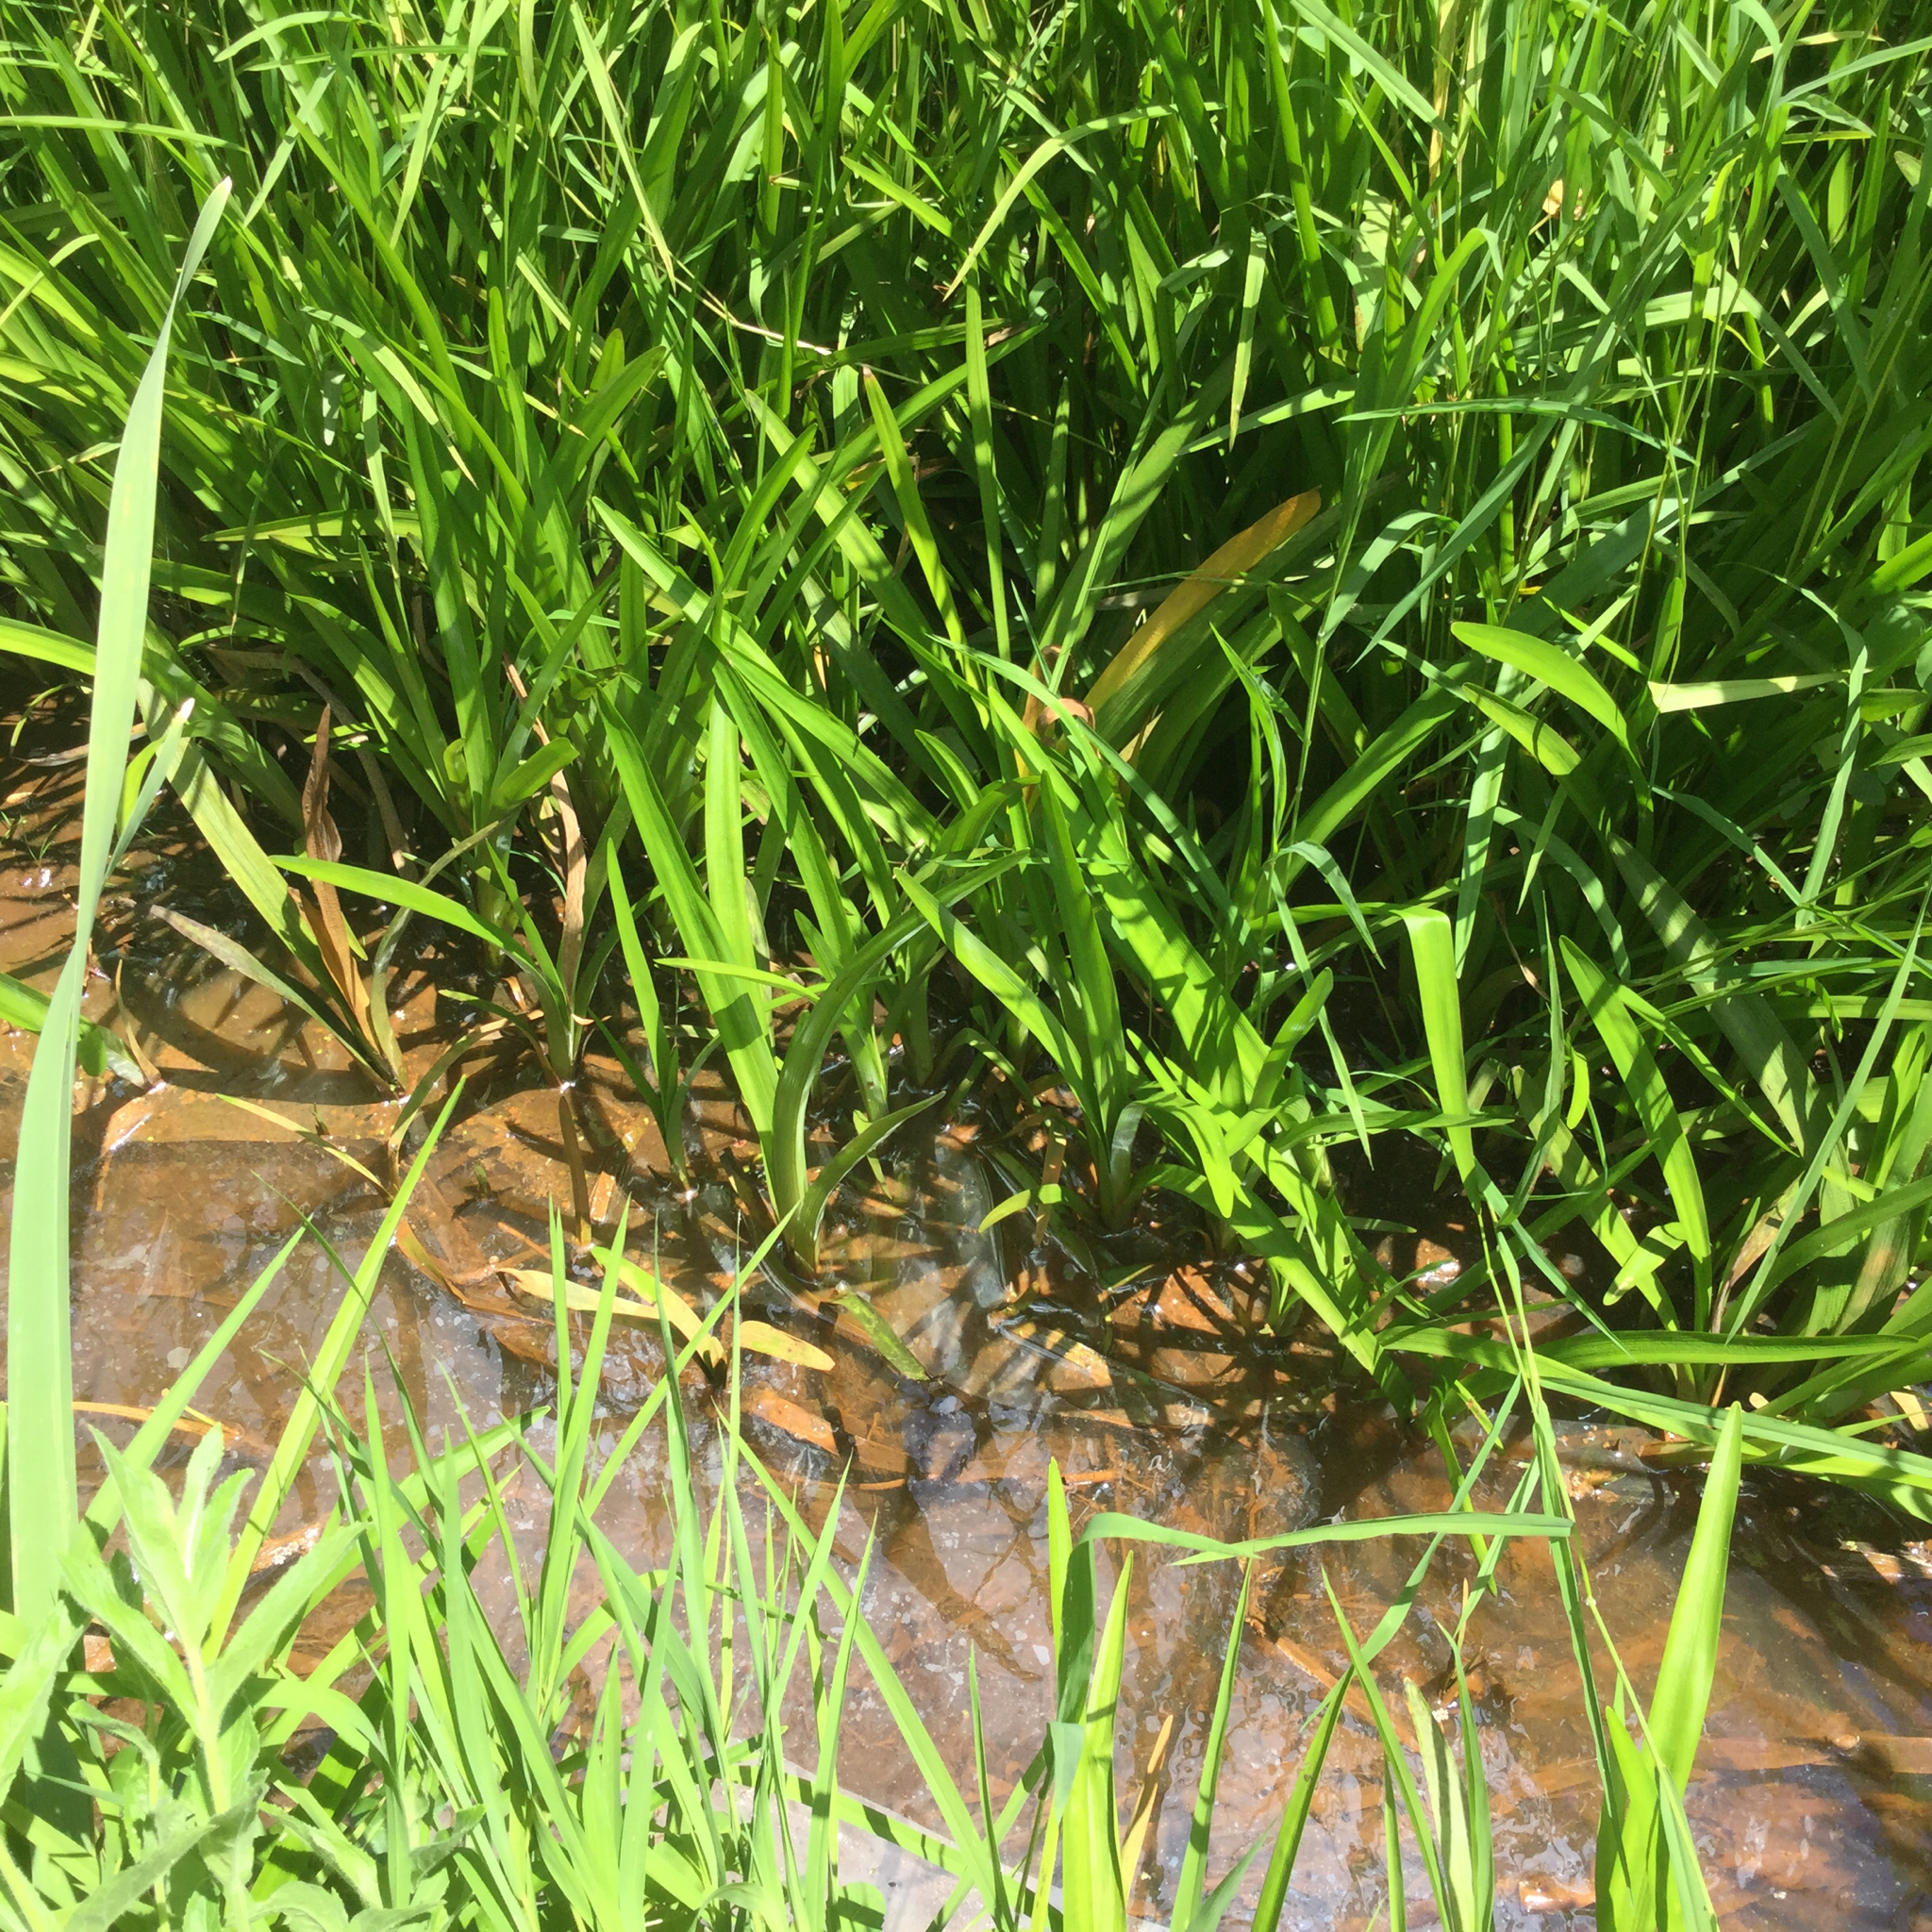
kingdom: Plantae
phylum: Tracheophyta
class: Liliopsida
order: Poales
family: Typhaceae
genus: Sparganium
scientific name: Sparganium androcladum
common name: Branched burreed
